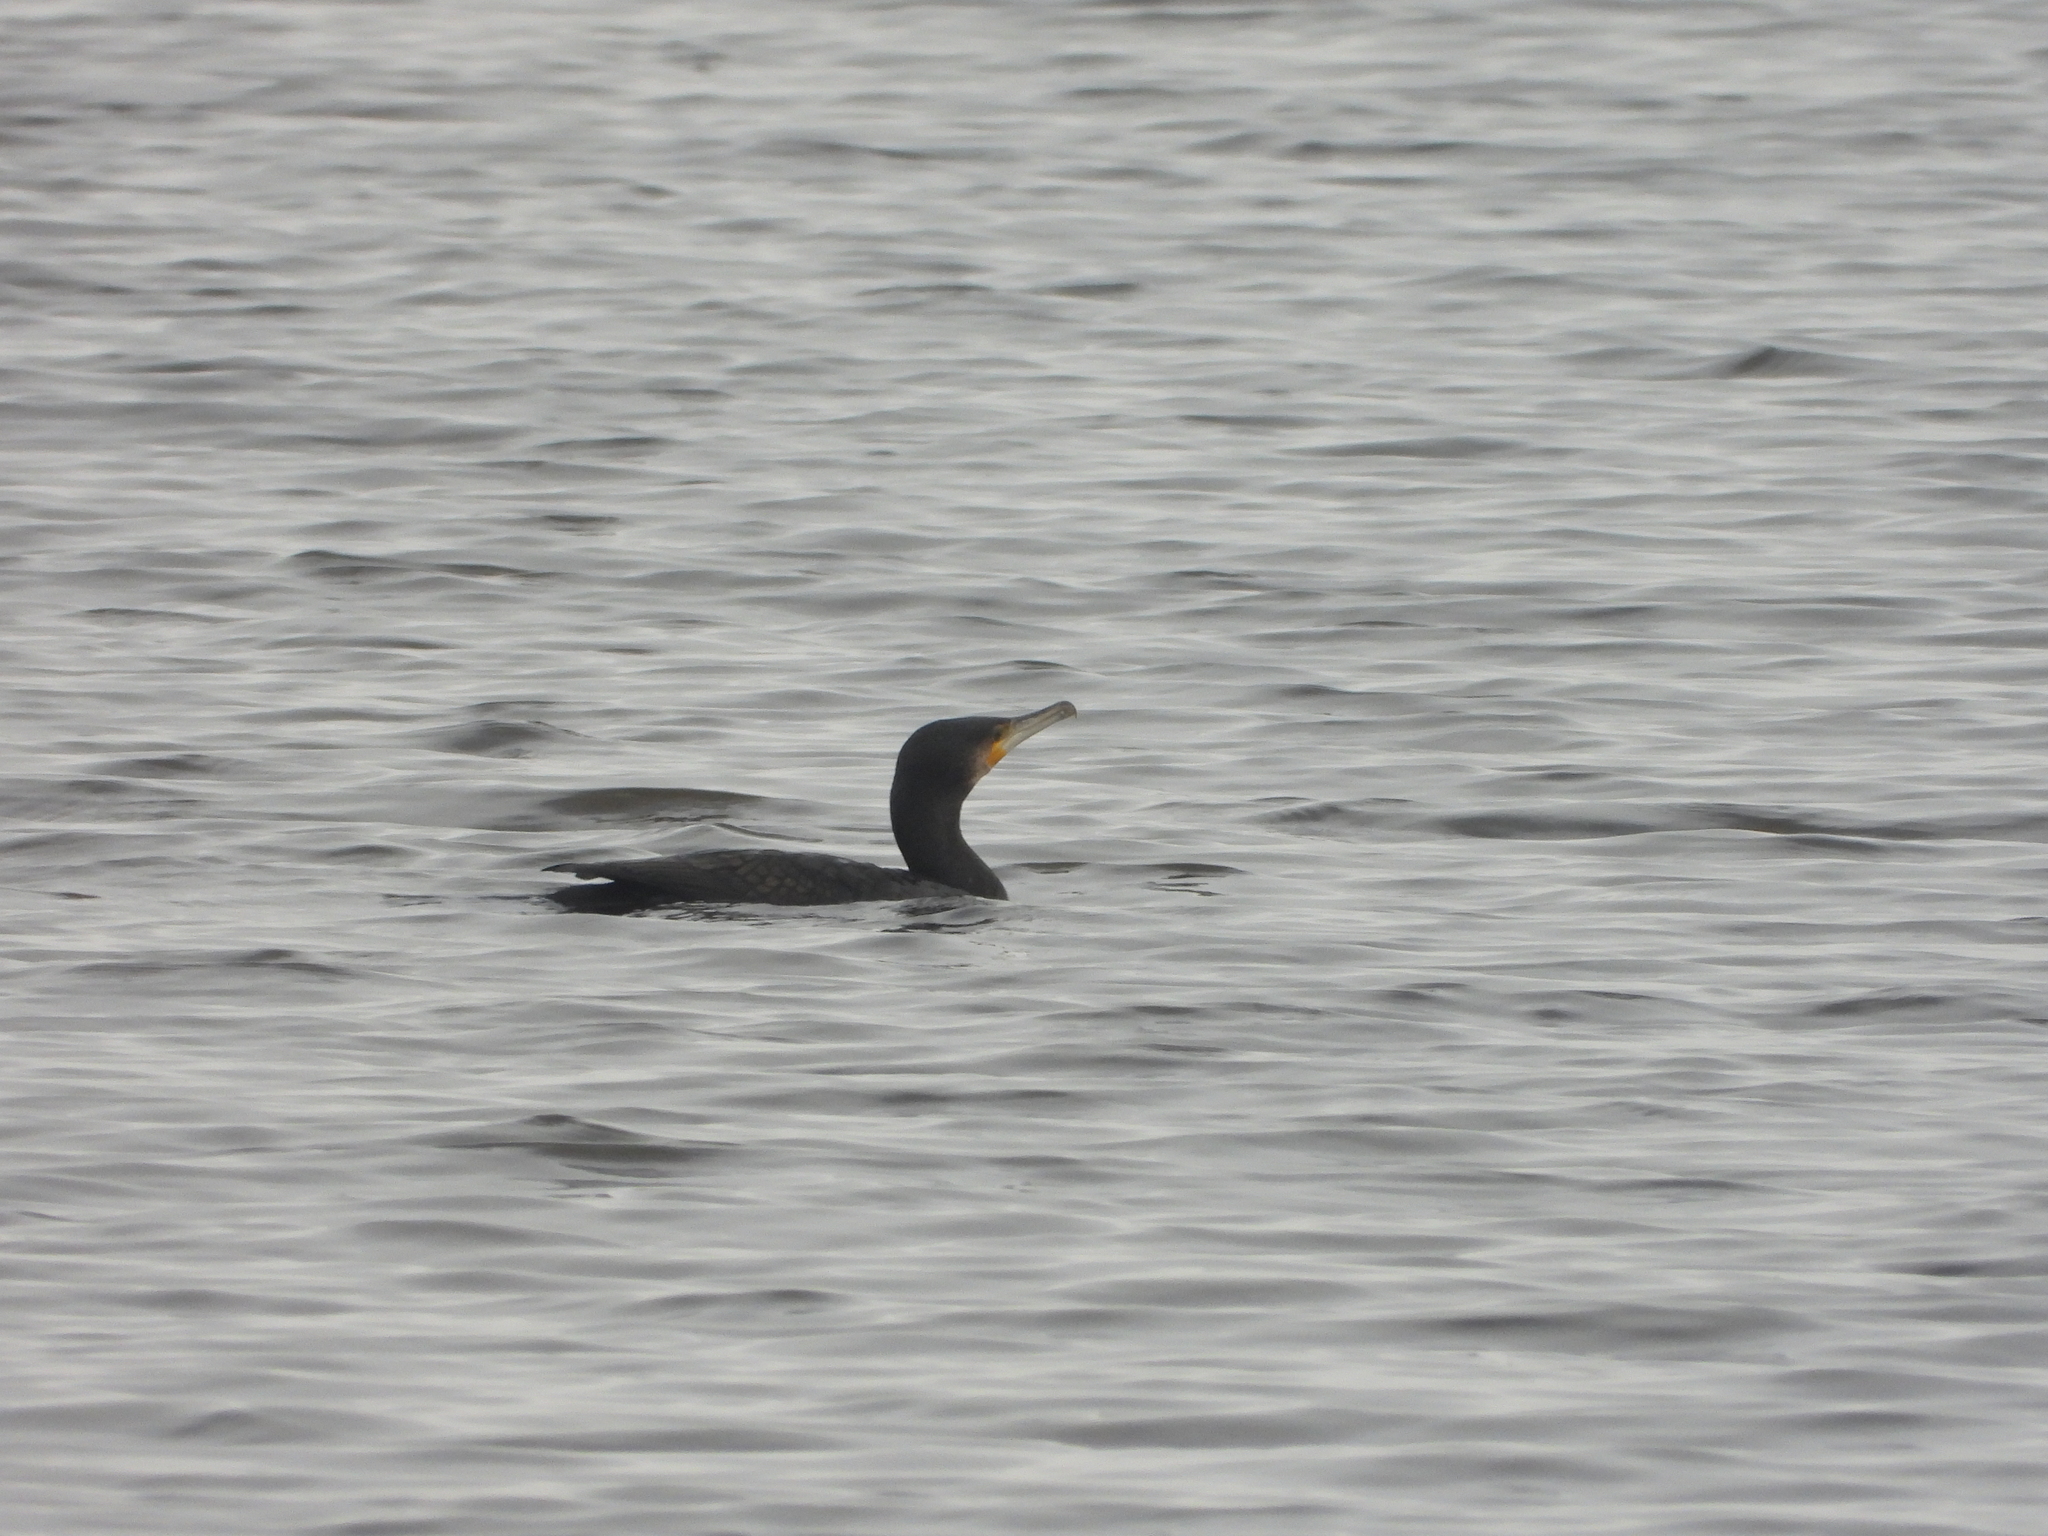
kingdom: Animalia
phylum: Chordata
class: Aves
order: Suliformes
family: Phalacrocoracidae
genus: Phalacrocorax
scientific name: Phalacrocorax carbo
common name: Great cormorant
